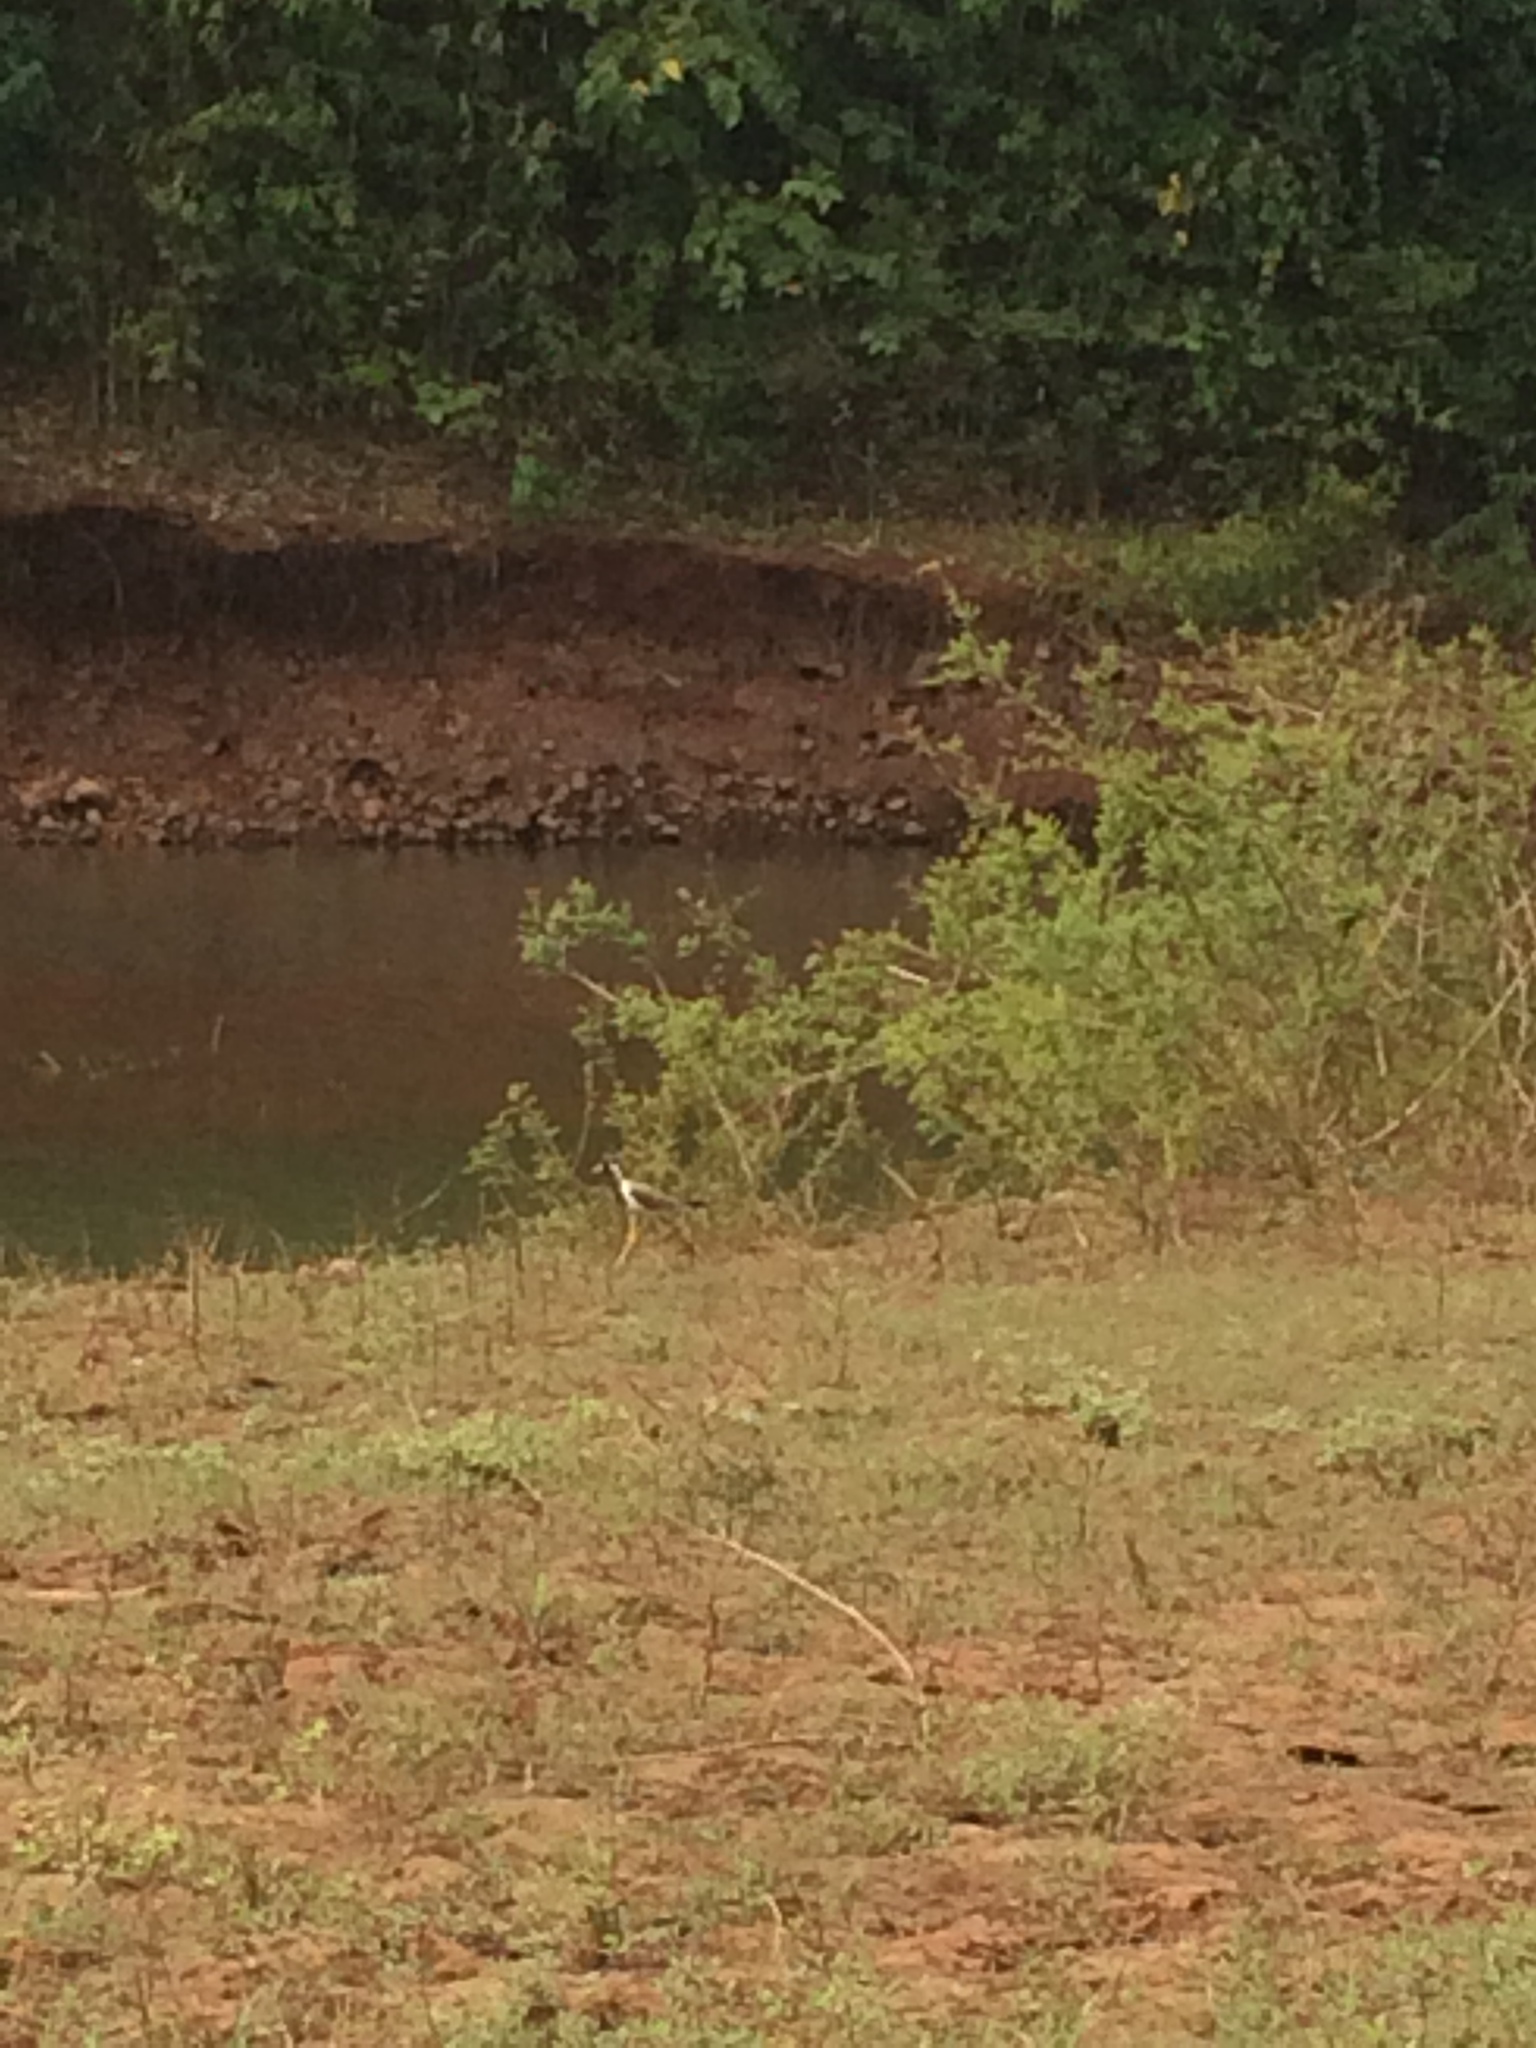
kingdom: Animalia
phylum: Chordata
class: Aves
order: Charadriiformes
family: Charadriidae
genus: Vanellus
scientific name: Vanellus indicus
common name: Red-wattled lapwing
